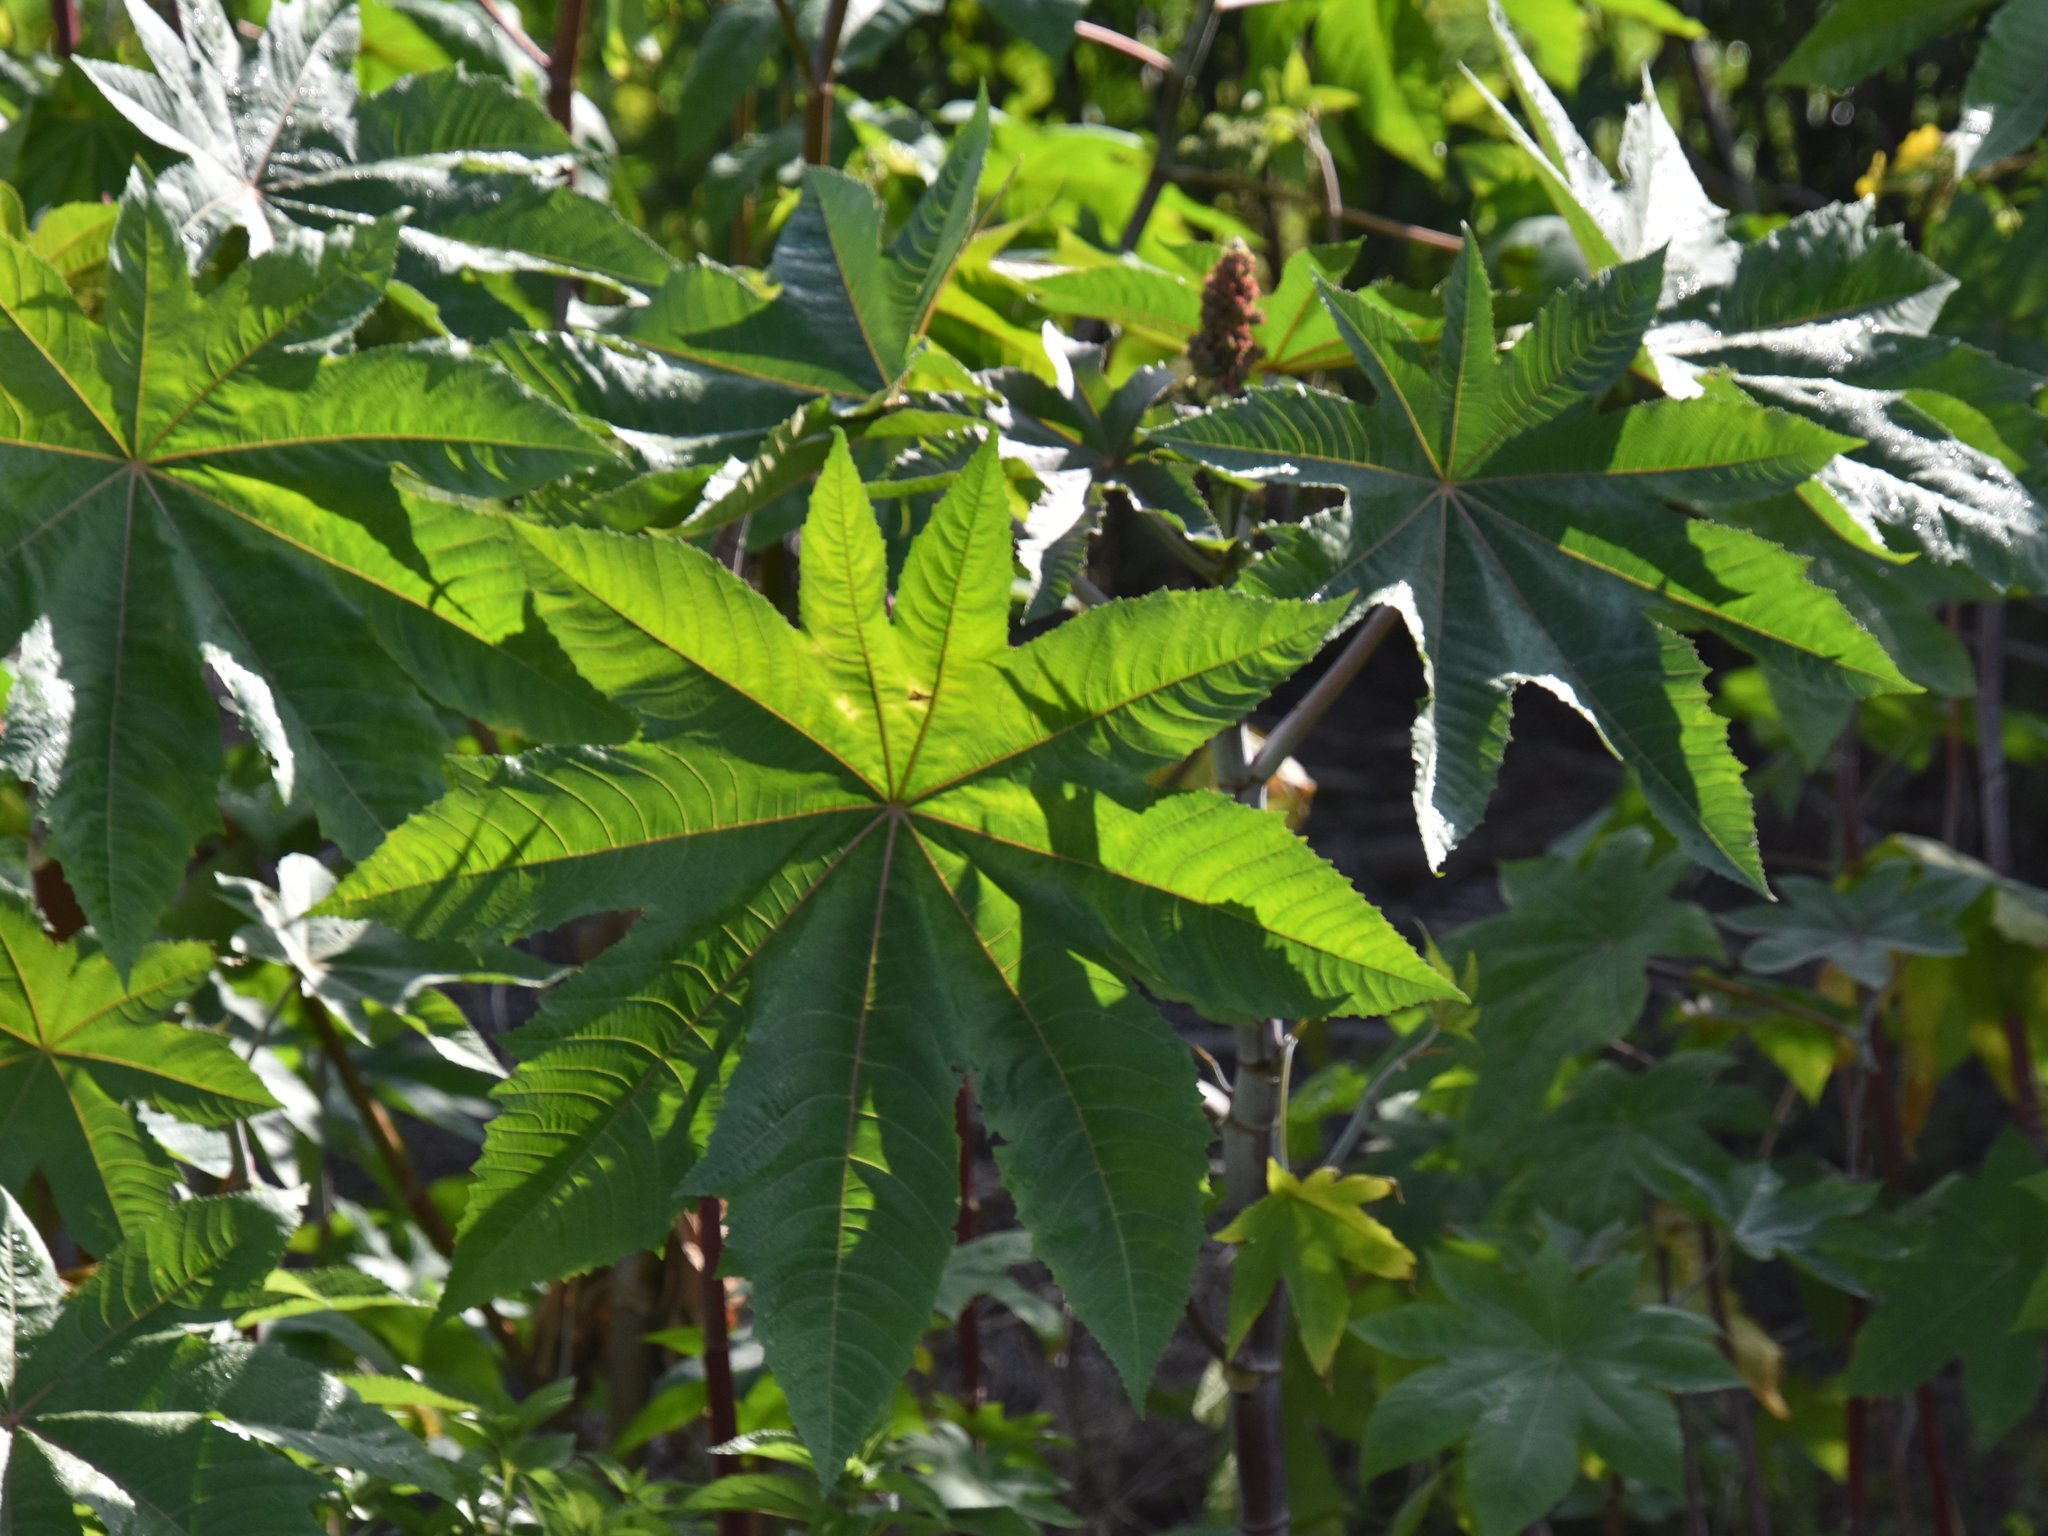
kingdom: Plantae
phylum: Tracheophyta
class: Magnoliopsida
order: Malpighiales
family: Euphorbiaceae
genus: Ricinus
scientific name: Ricinus communis
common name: Castor-oil-plant
